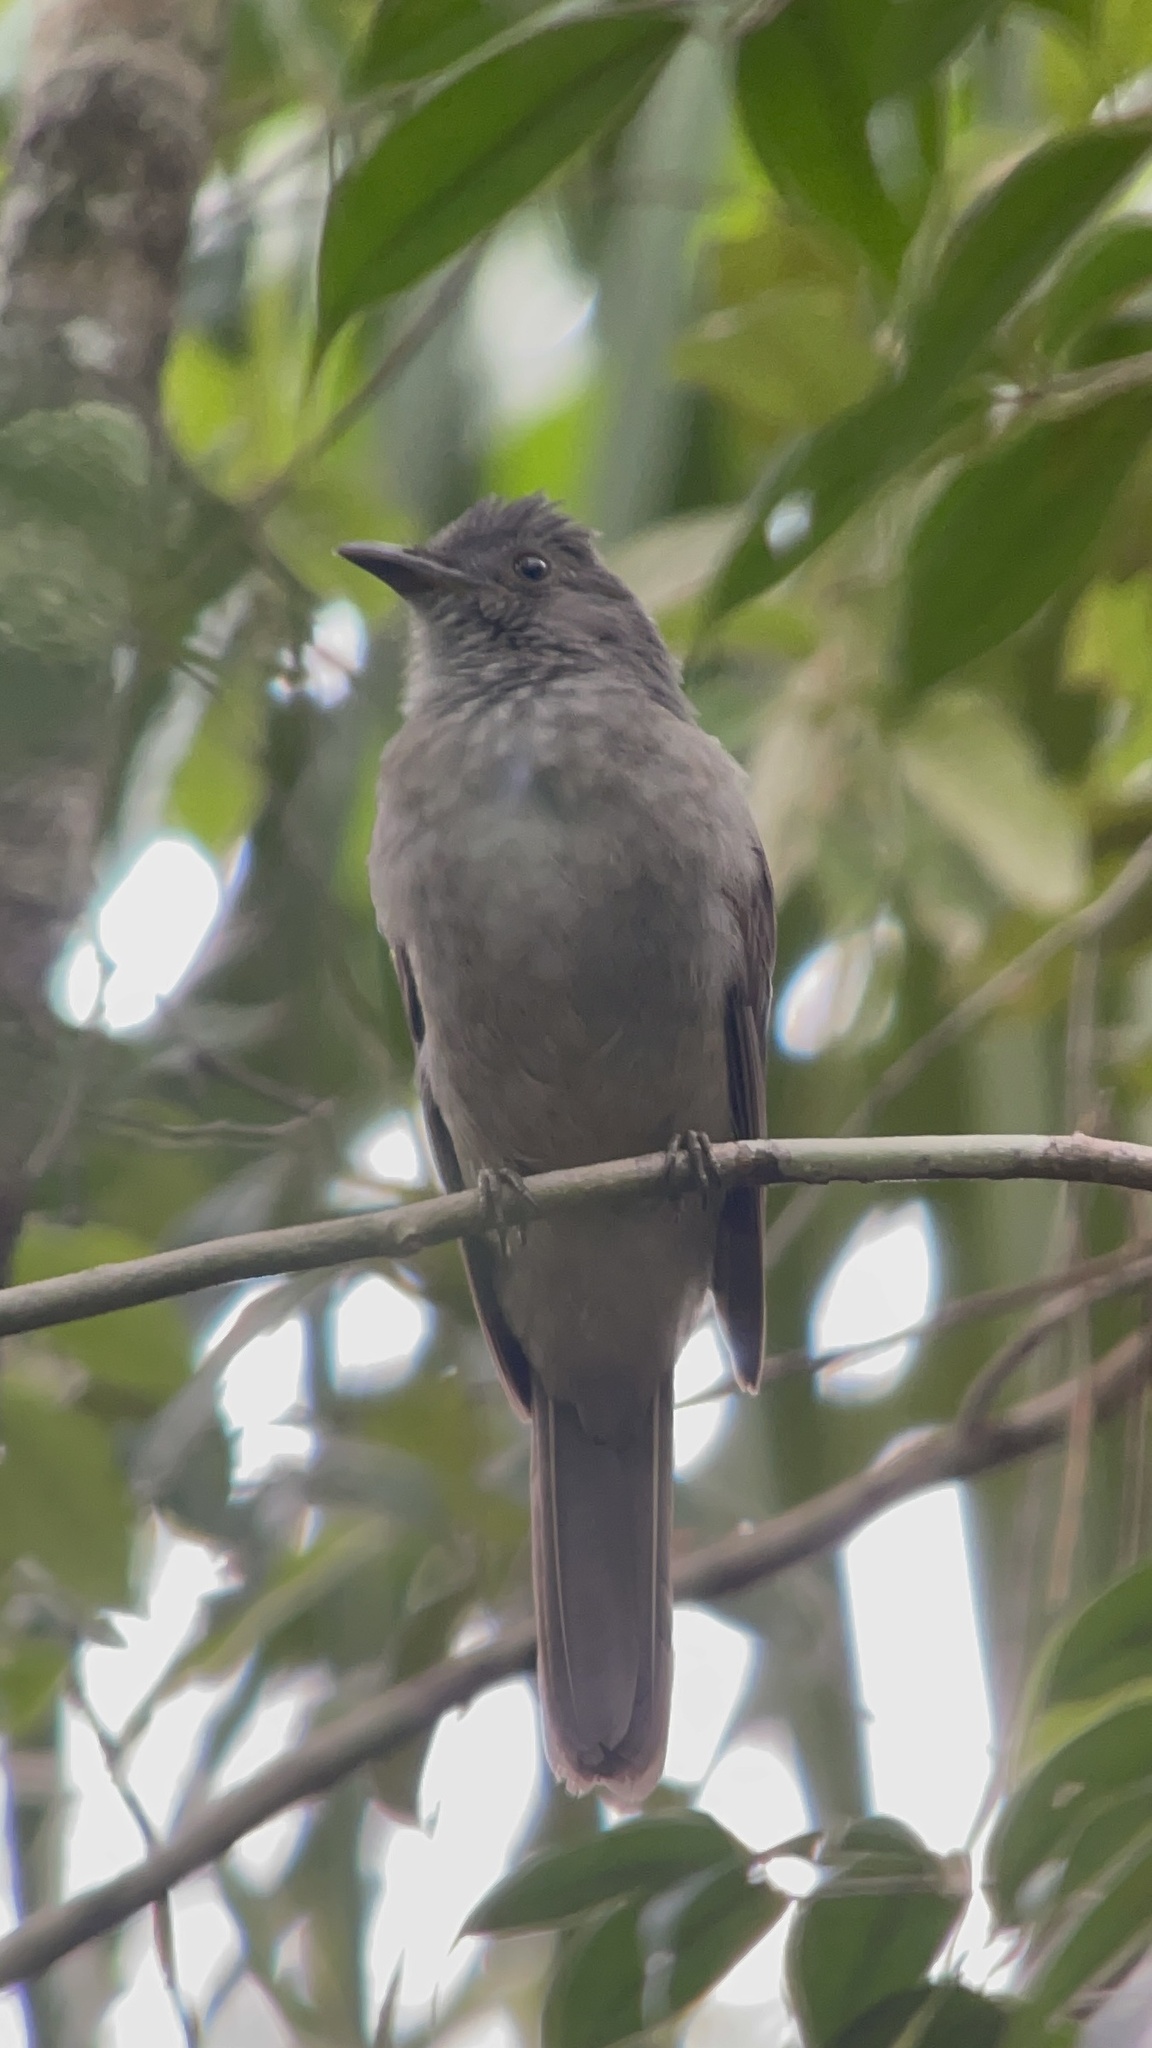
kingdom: Animalia
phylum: Chordata
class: Aves
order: Passeriformes
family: Cotingidae
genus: Lipaugus
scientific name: Lipaugus vociferans
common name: Screaming piha
